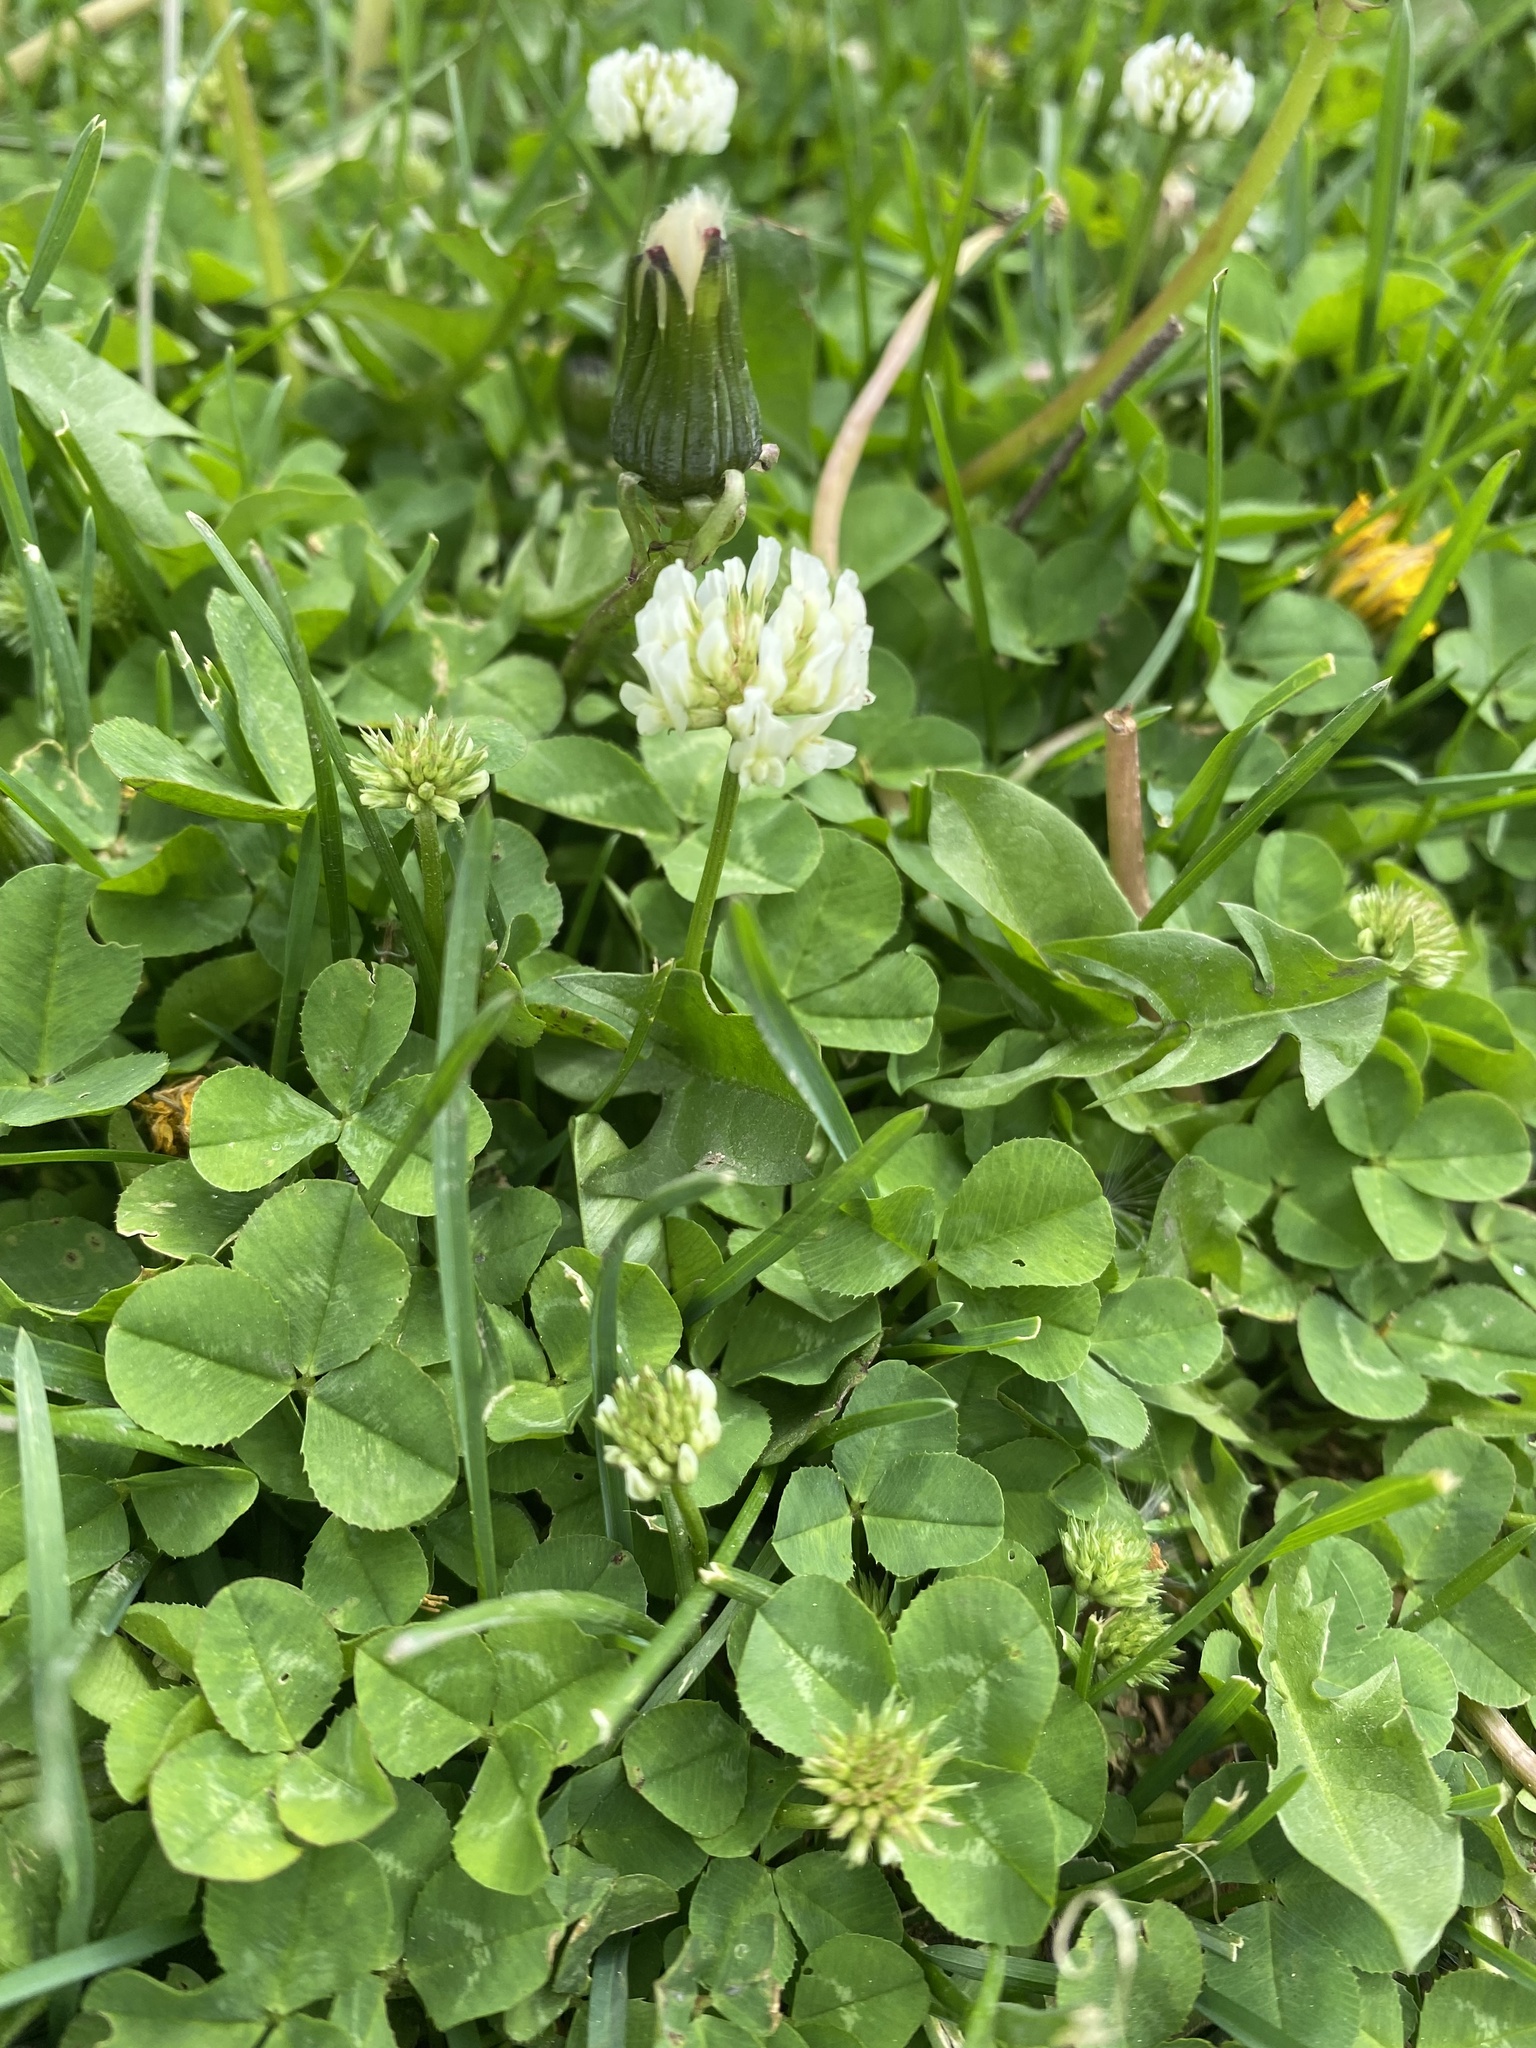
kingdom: Plantae
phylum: Tracheophyta
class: Magnoliopsida
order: Fabales
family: Fabaceae
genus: Trifolium
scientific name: Trifolium repens
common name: White clover
